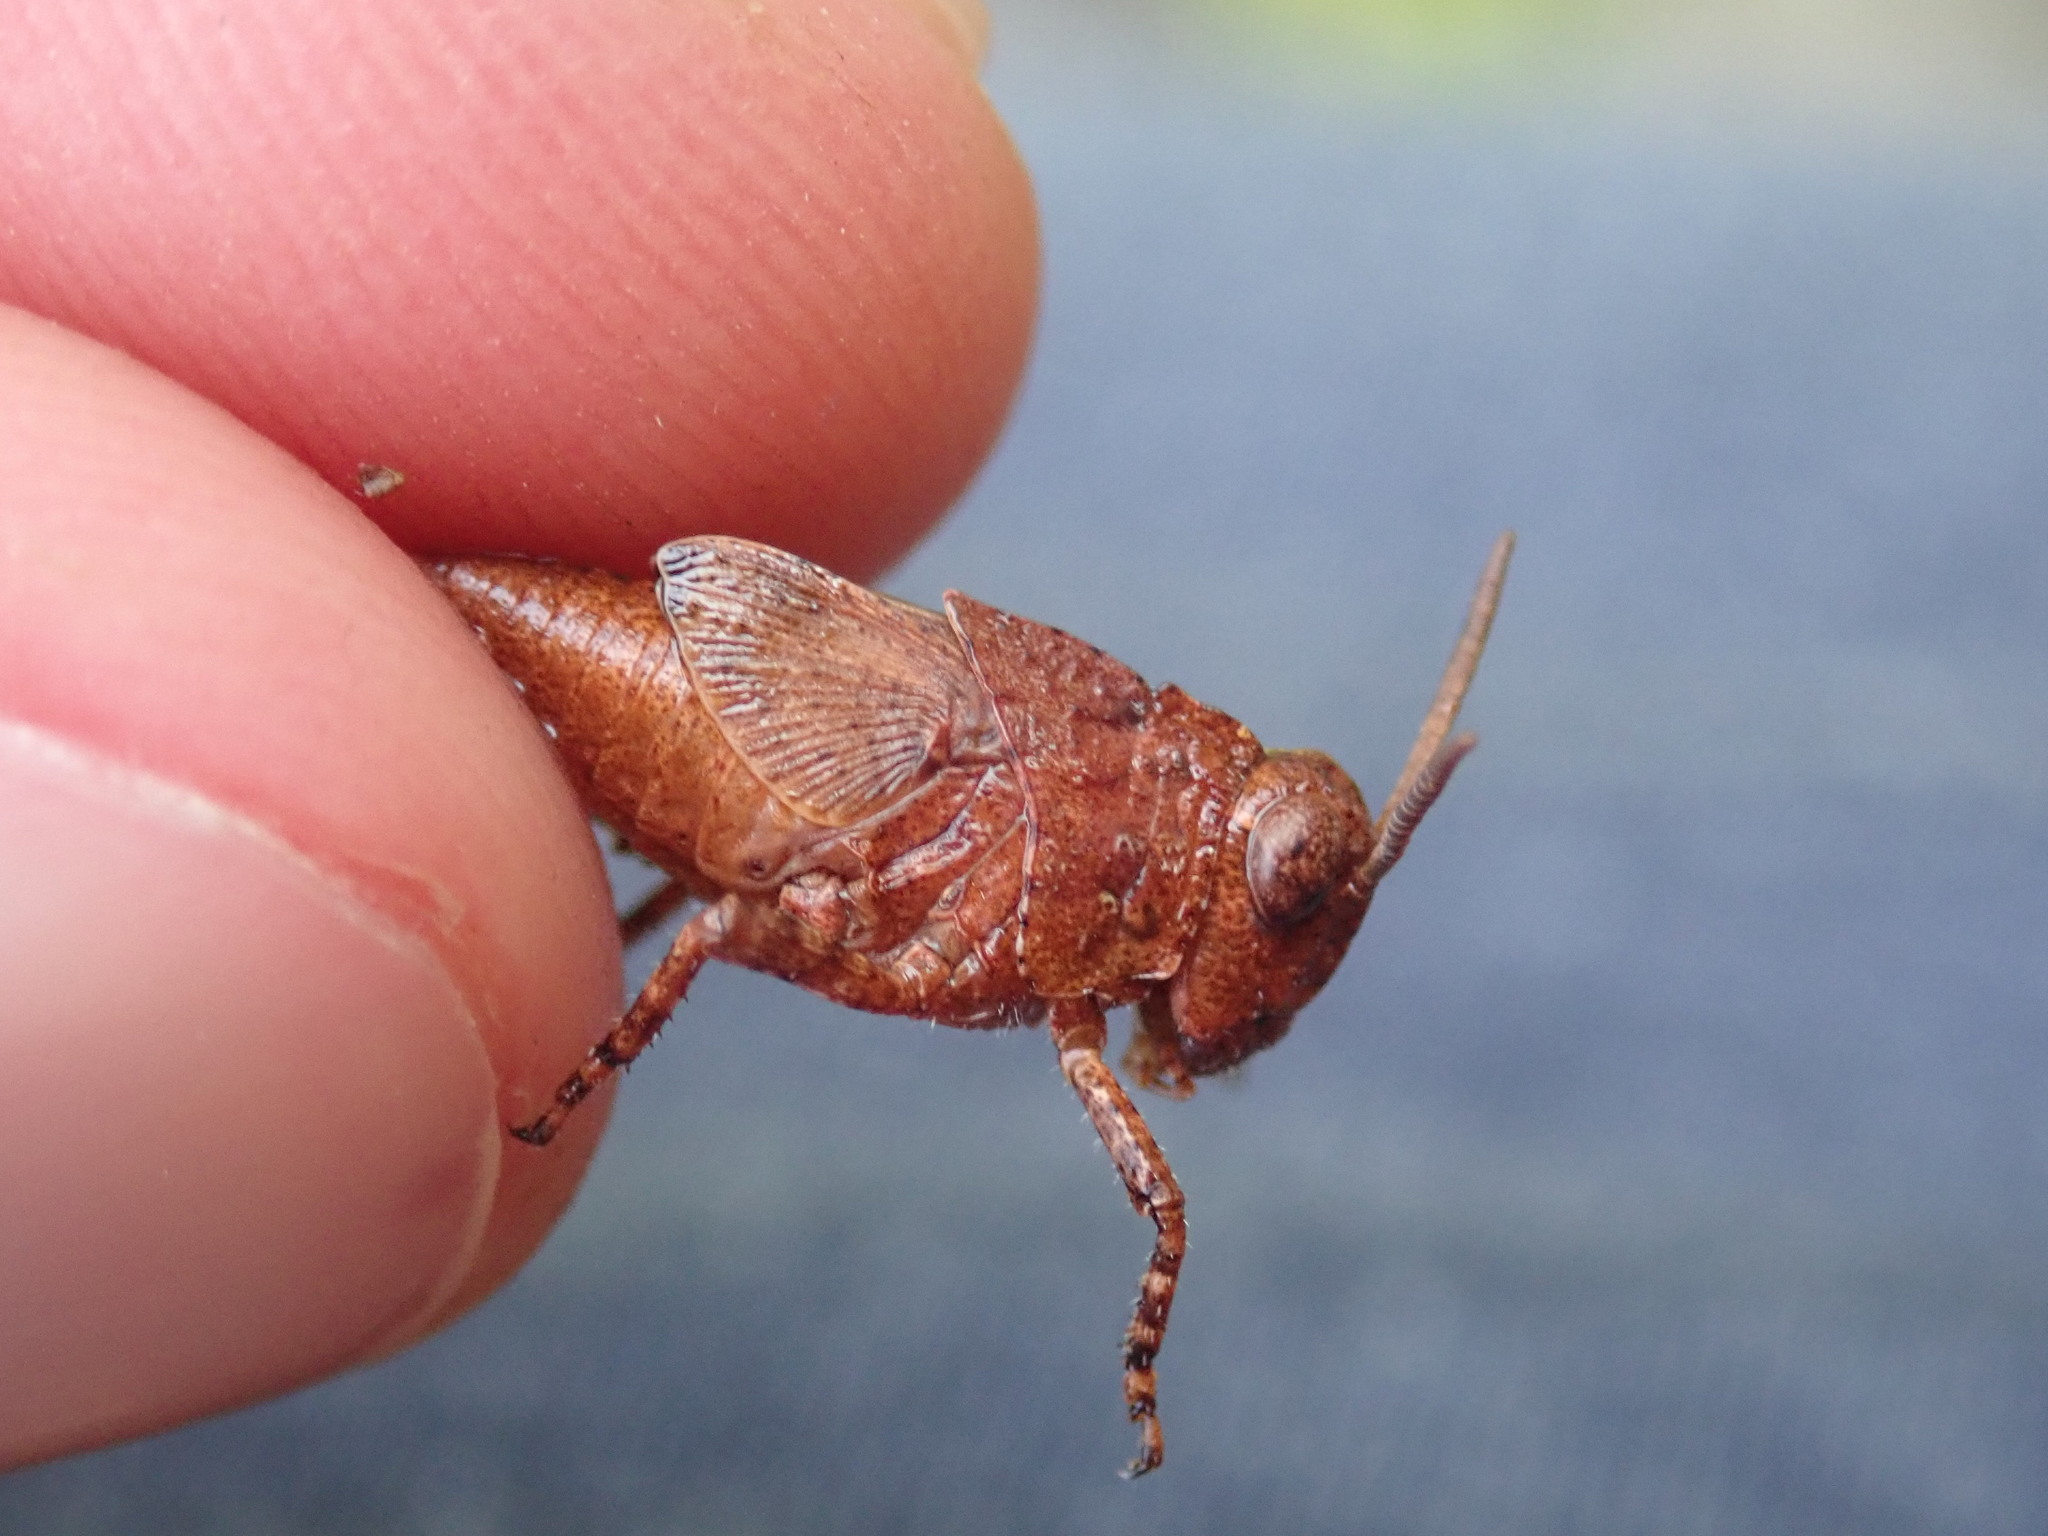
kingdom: Animalia
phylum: Arthropoda
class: Insecta
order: Orthoptera
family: Acrididae
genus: Oedipoda
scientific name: Oedipoda caerulescens
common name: Blue-winged grasshopper
